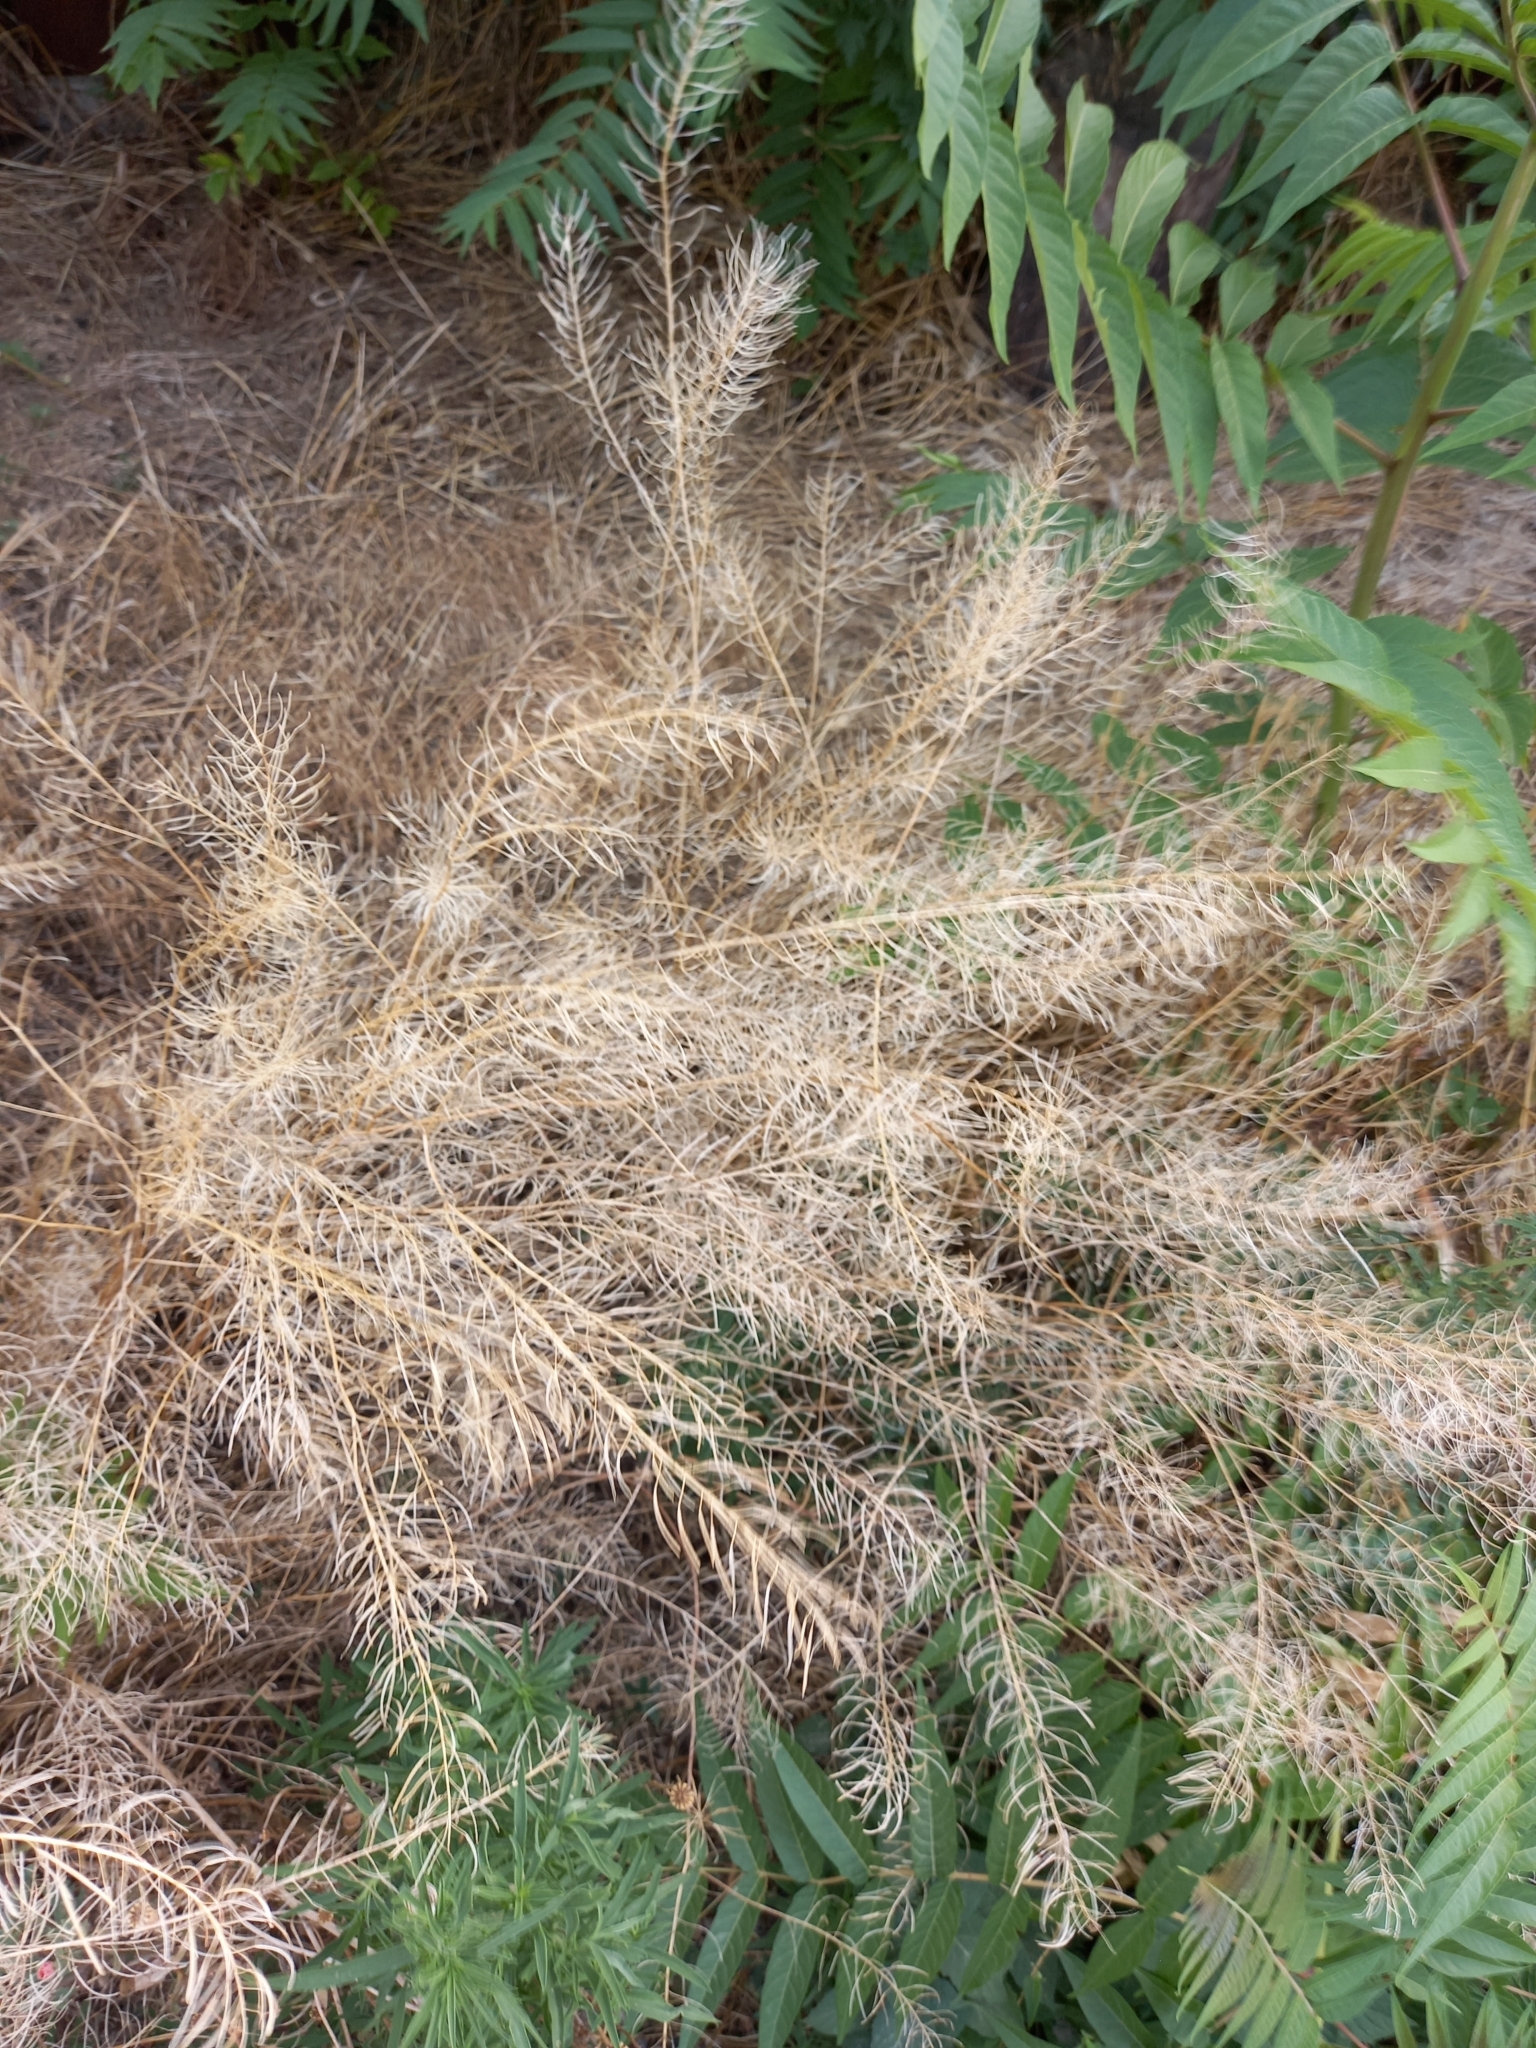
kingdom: Plantae
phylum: Tracheophyta
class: Magnoliopsida
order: Brassicales
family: Brassicaceae
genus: Descurainia
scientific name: Descurainia sophia
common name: Flixweed
